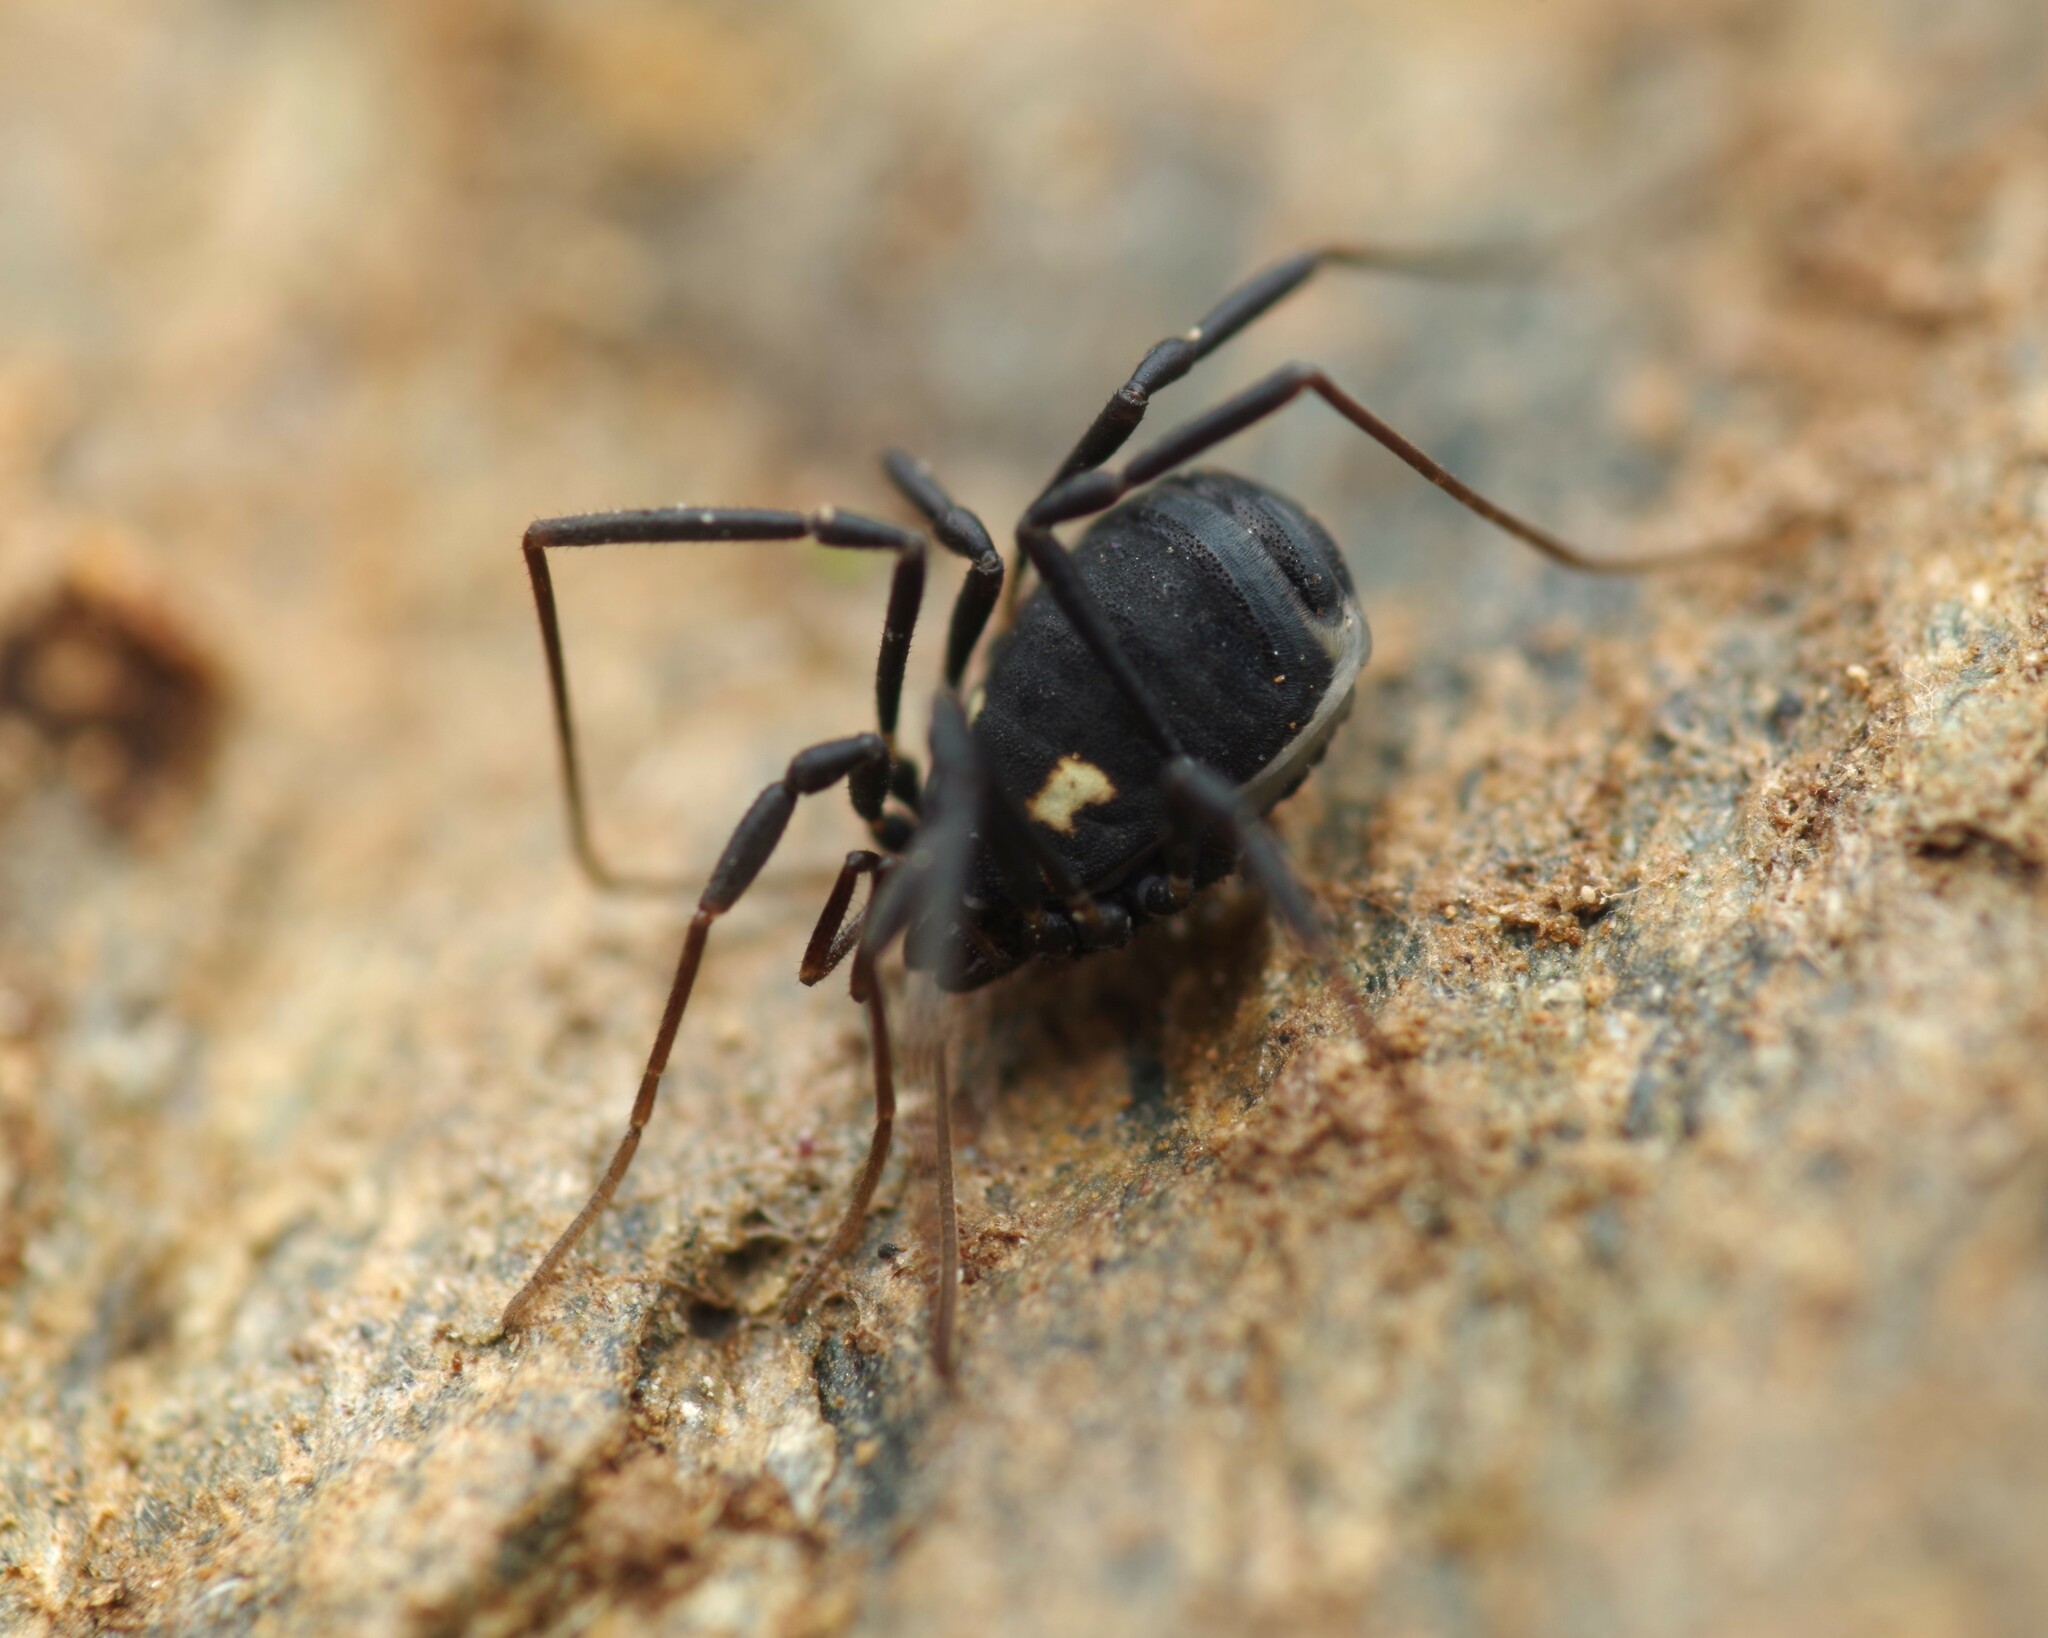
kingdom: Animalia
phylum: Arthropoda
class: Arachnida
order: Opiliones
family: Nemastomatidae
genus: Nemastoma
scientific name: Nemastoma bimaculatum
